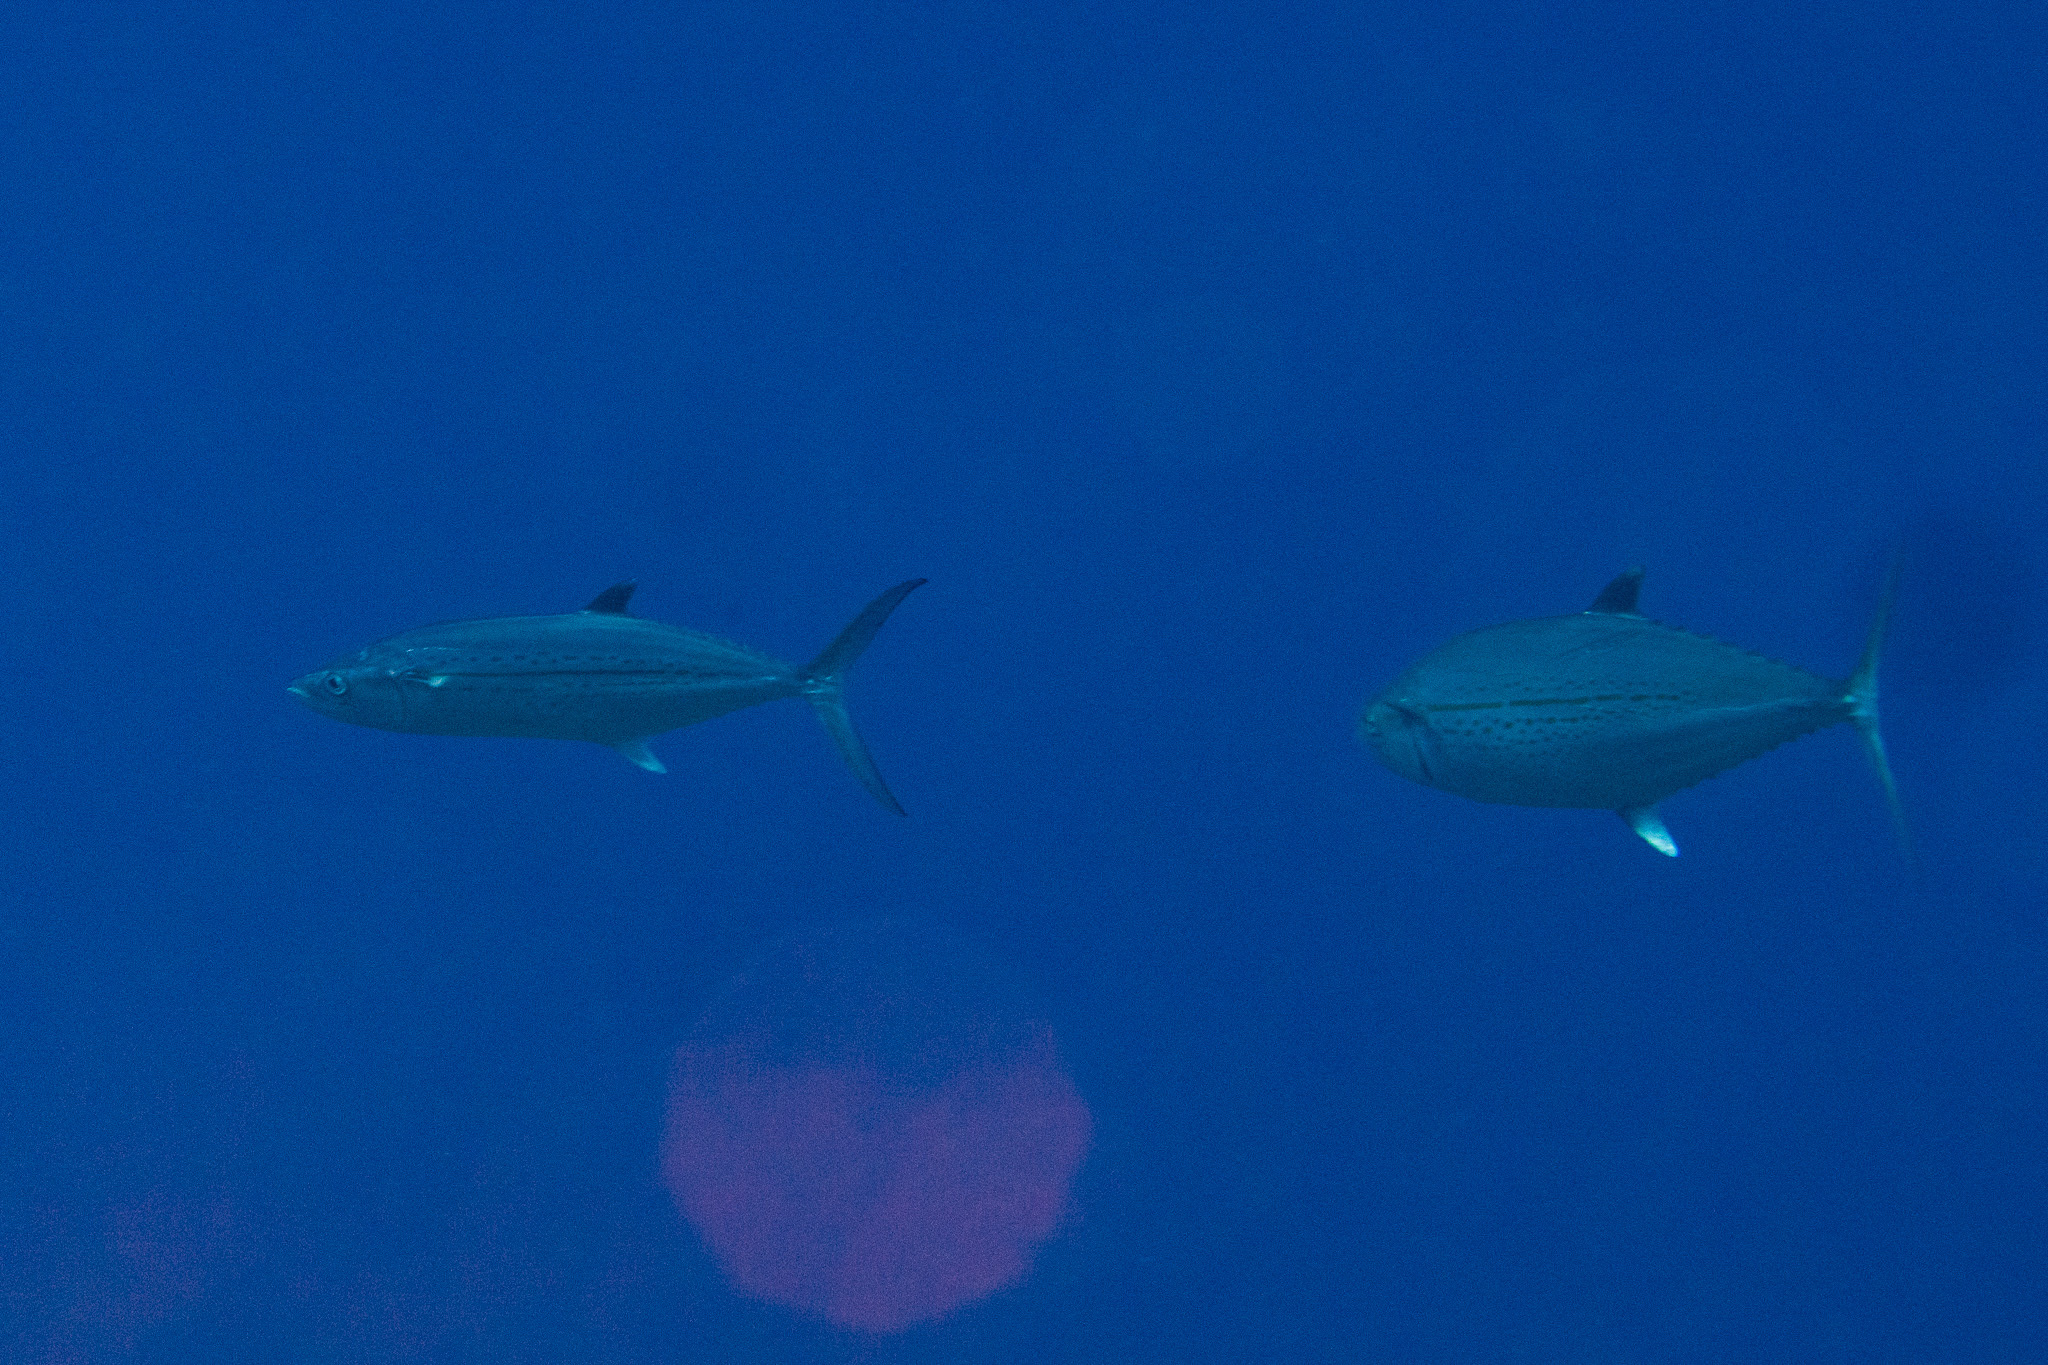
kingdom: Animalia
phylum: Chordata
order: Perciformes
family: Scombridae
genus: Scomberomorus
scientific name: Scomberomorus regalis
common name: Cero
